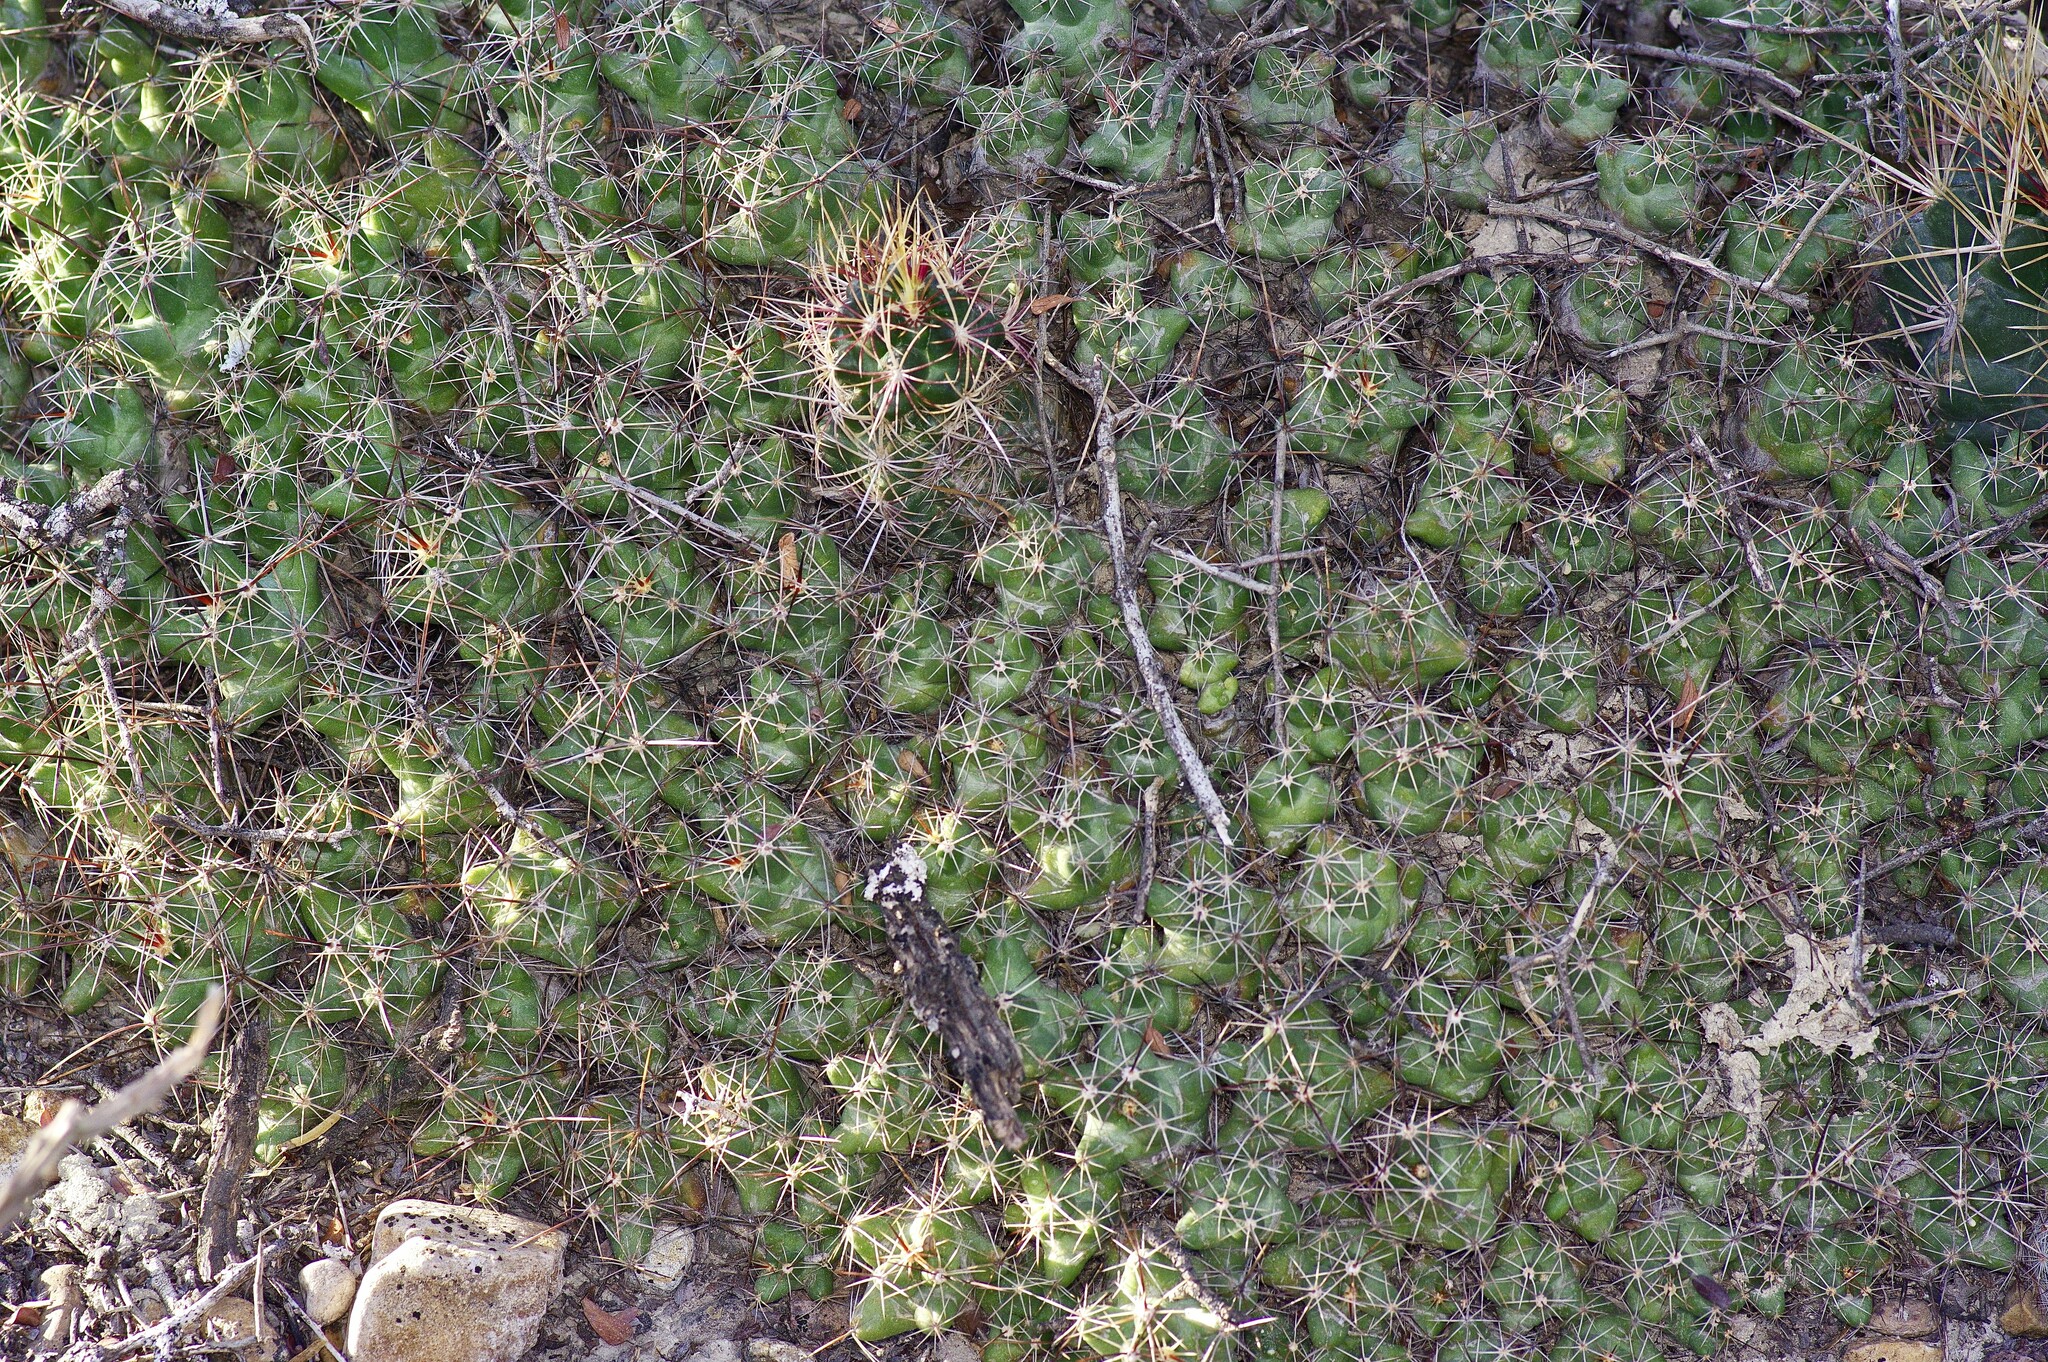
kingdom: Plantae
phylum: Tracheophyta
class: Magnoliopsida
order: Caryophyllales
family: Cactaceae
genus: Pelecyphora
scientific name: Pelecyphora macromeris
